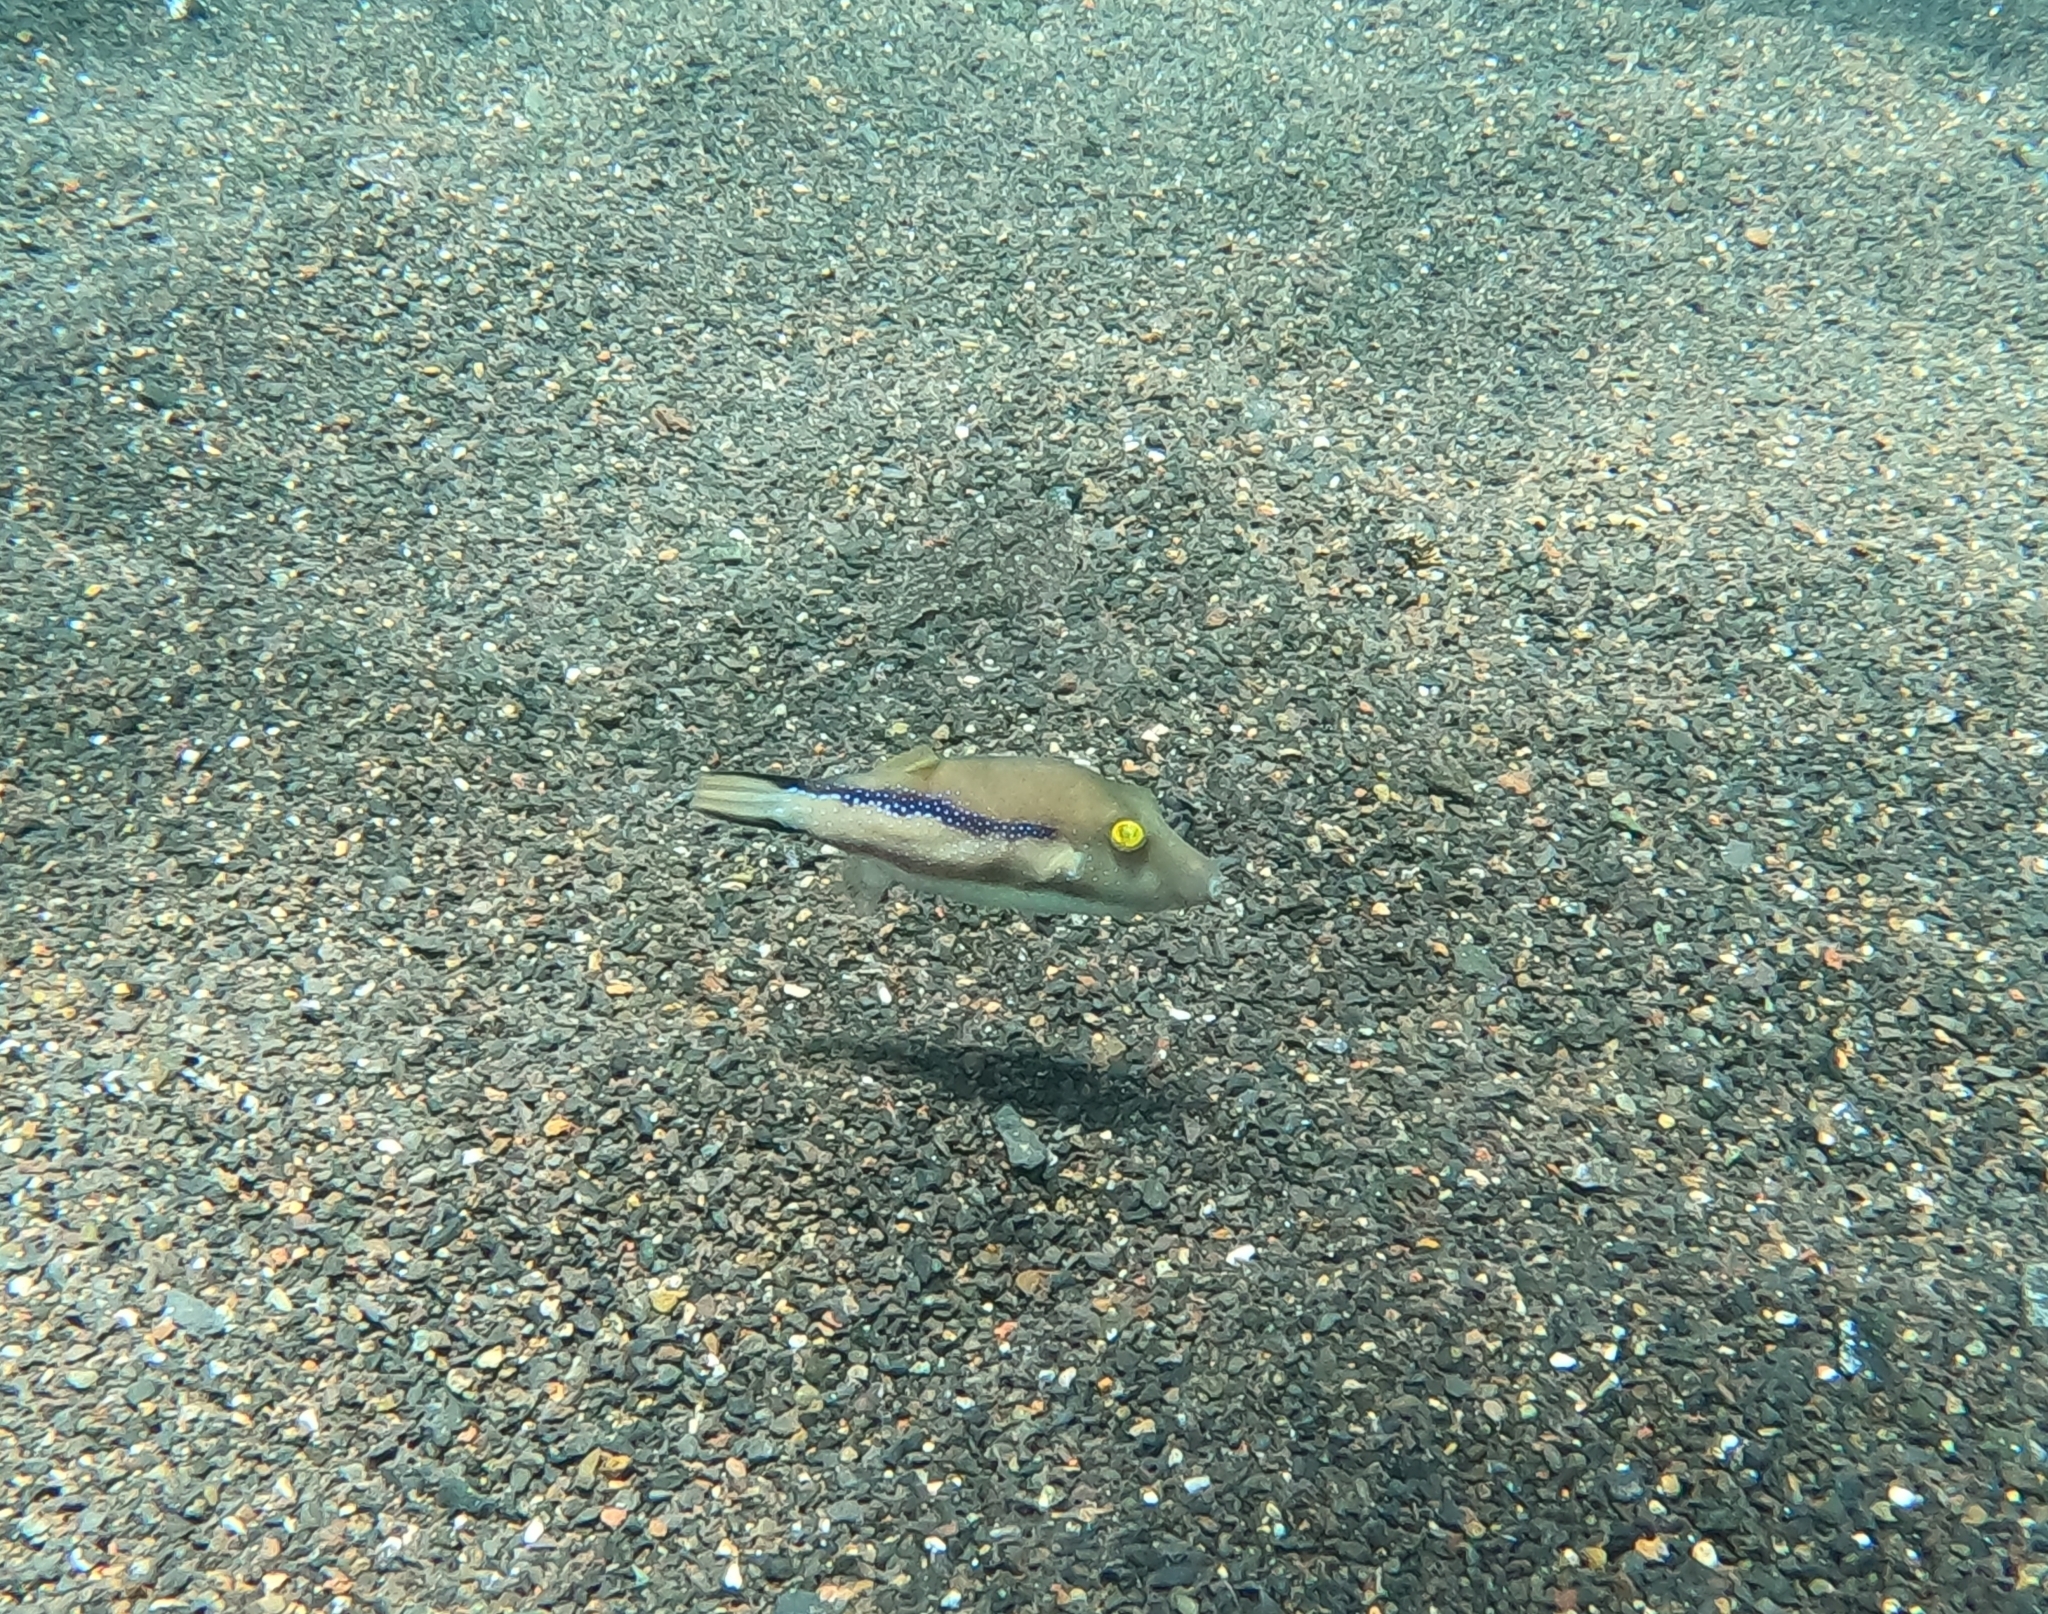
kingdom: Animalia
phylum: Chordata
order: Tetraodontiformes
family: Tetraodontidae
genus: Canthigaster
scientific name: Canthigaster capistrata
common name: Macaronesian sharpnose-puffer
